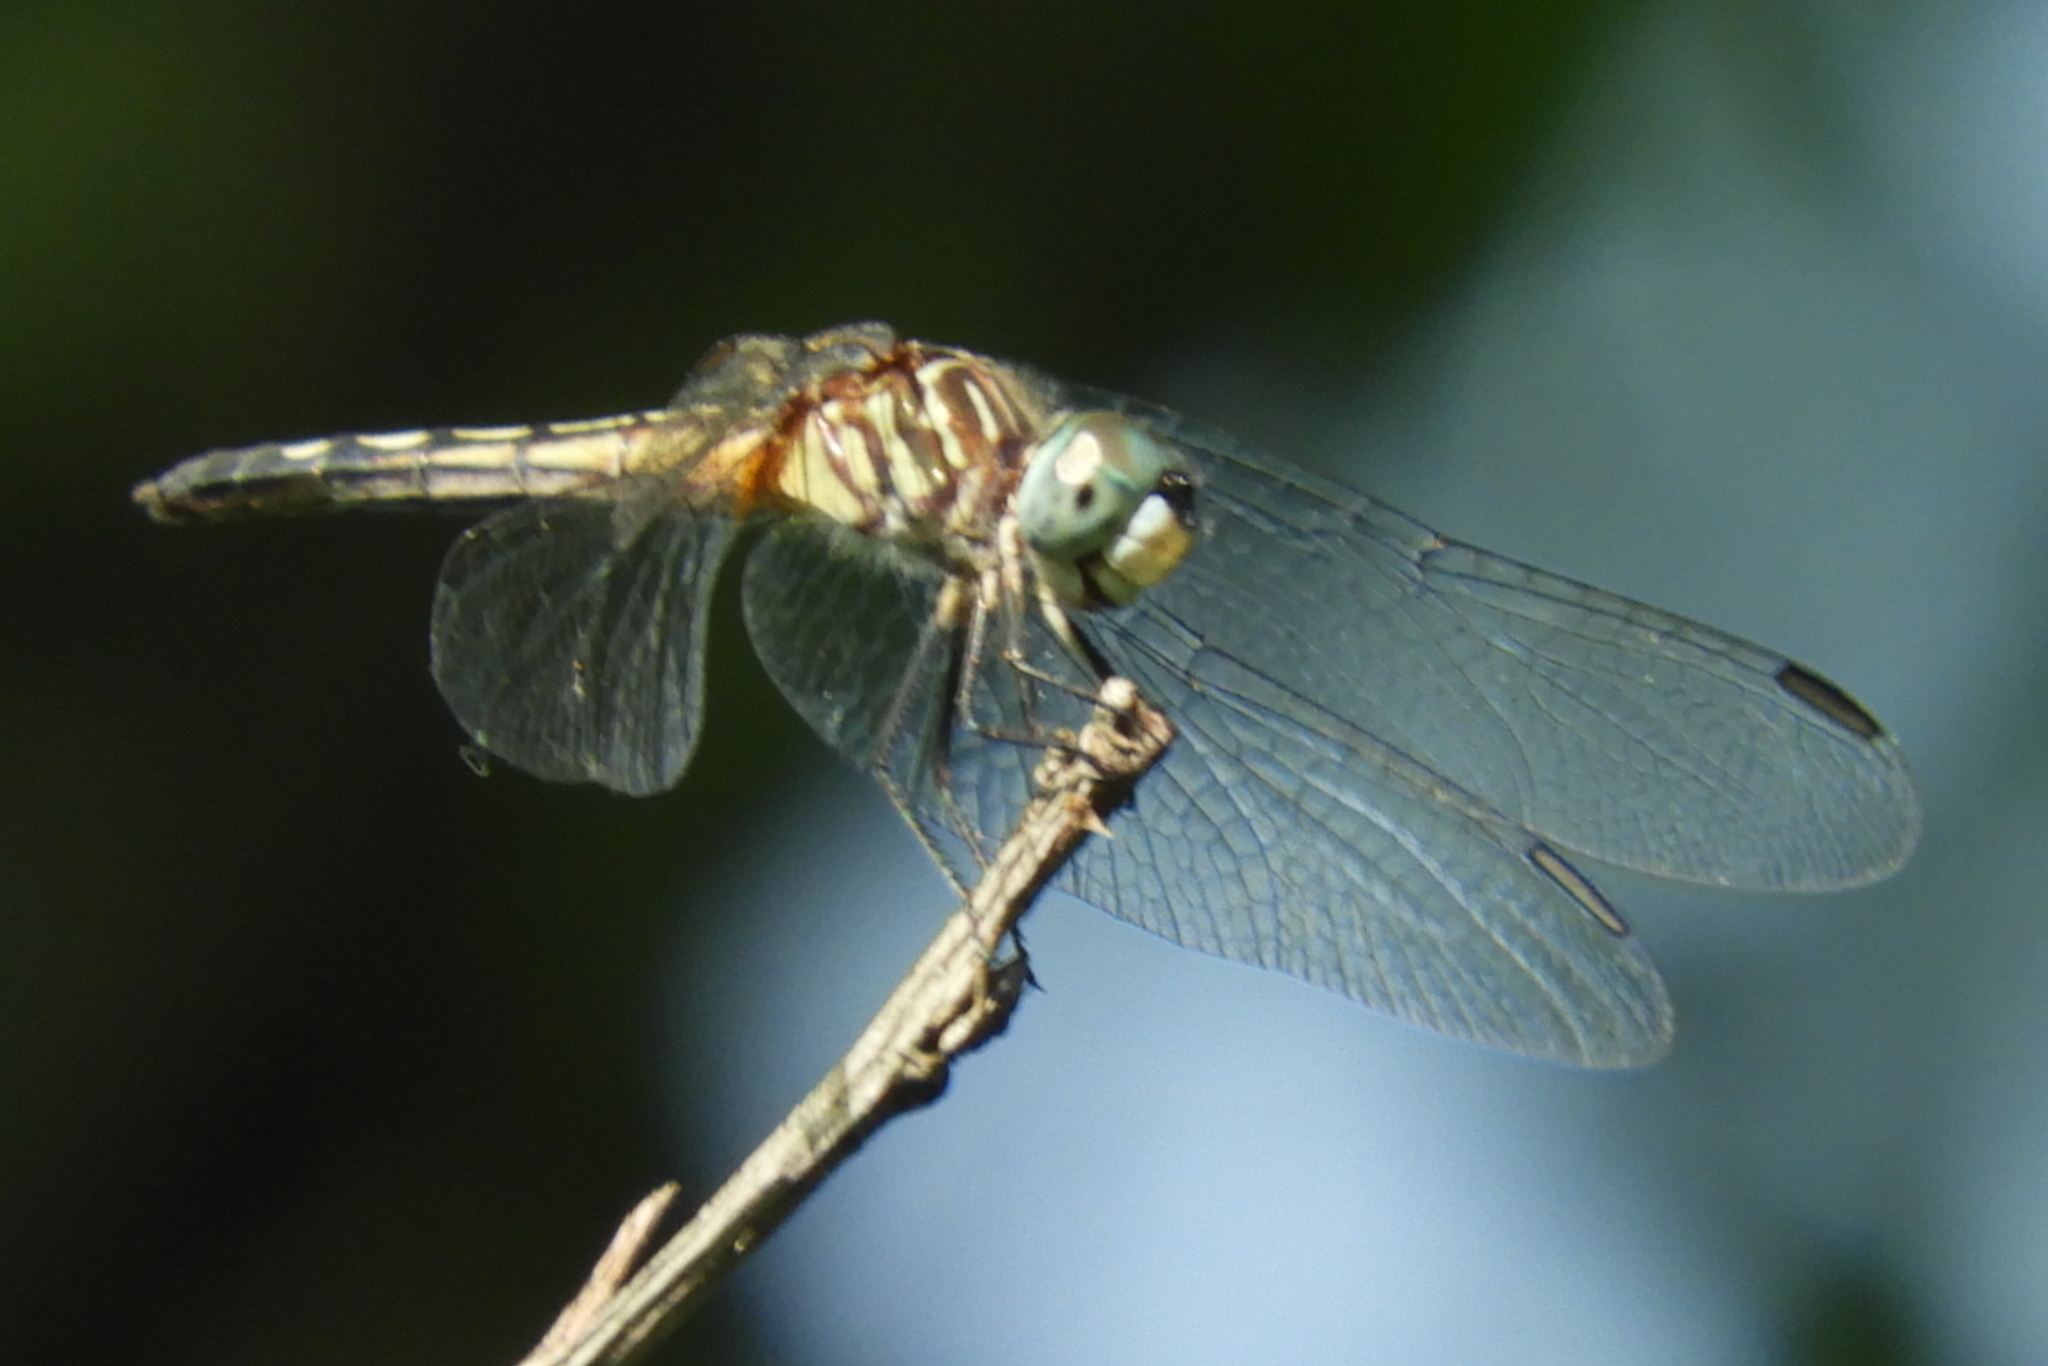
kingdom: Animalia
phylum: Arthropoda
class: Insecta
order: Odonata
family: Libellulidae
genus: Pachydiplax
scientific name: Pachydiplax longipennis
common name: Blue dasher
